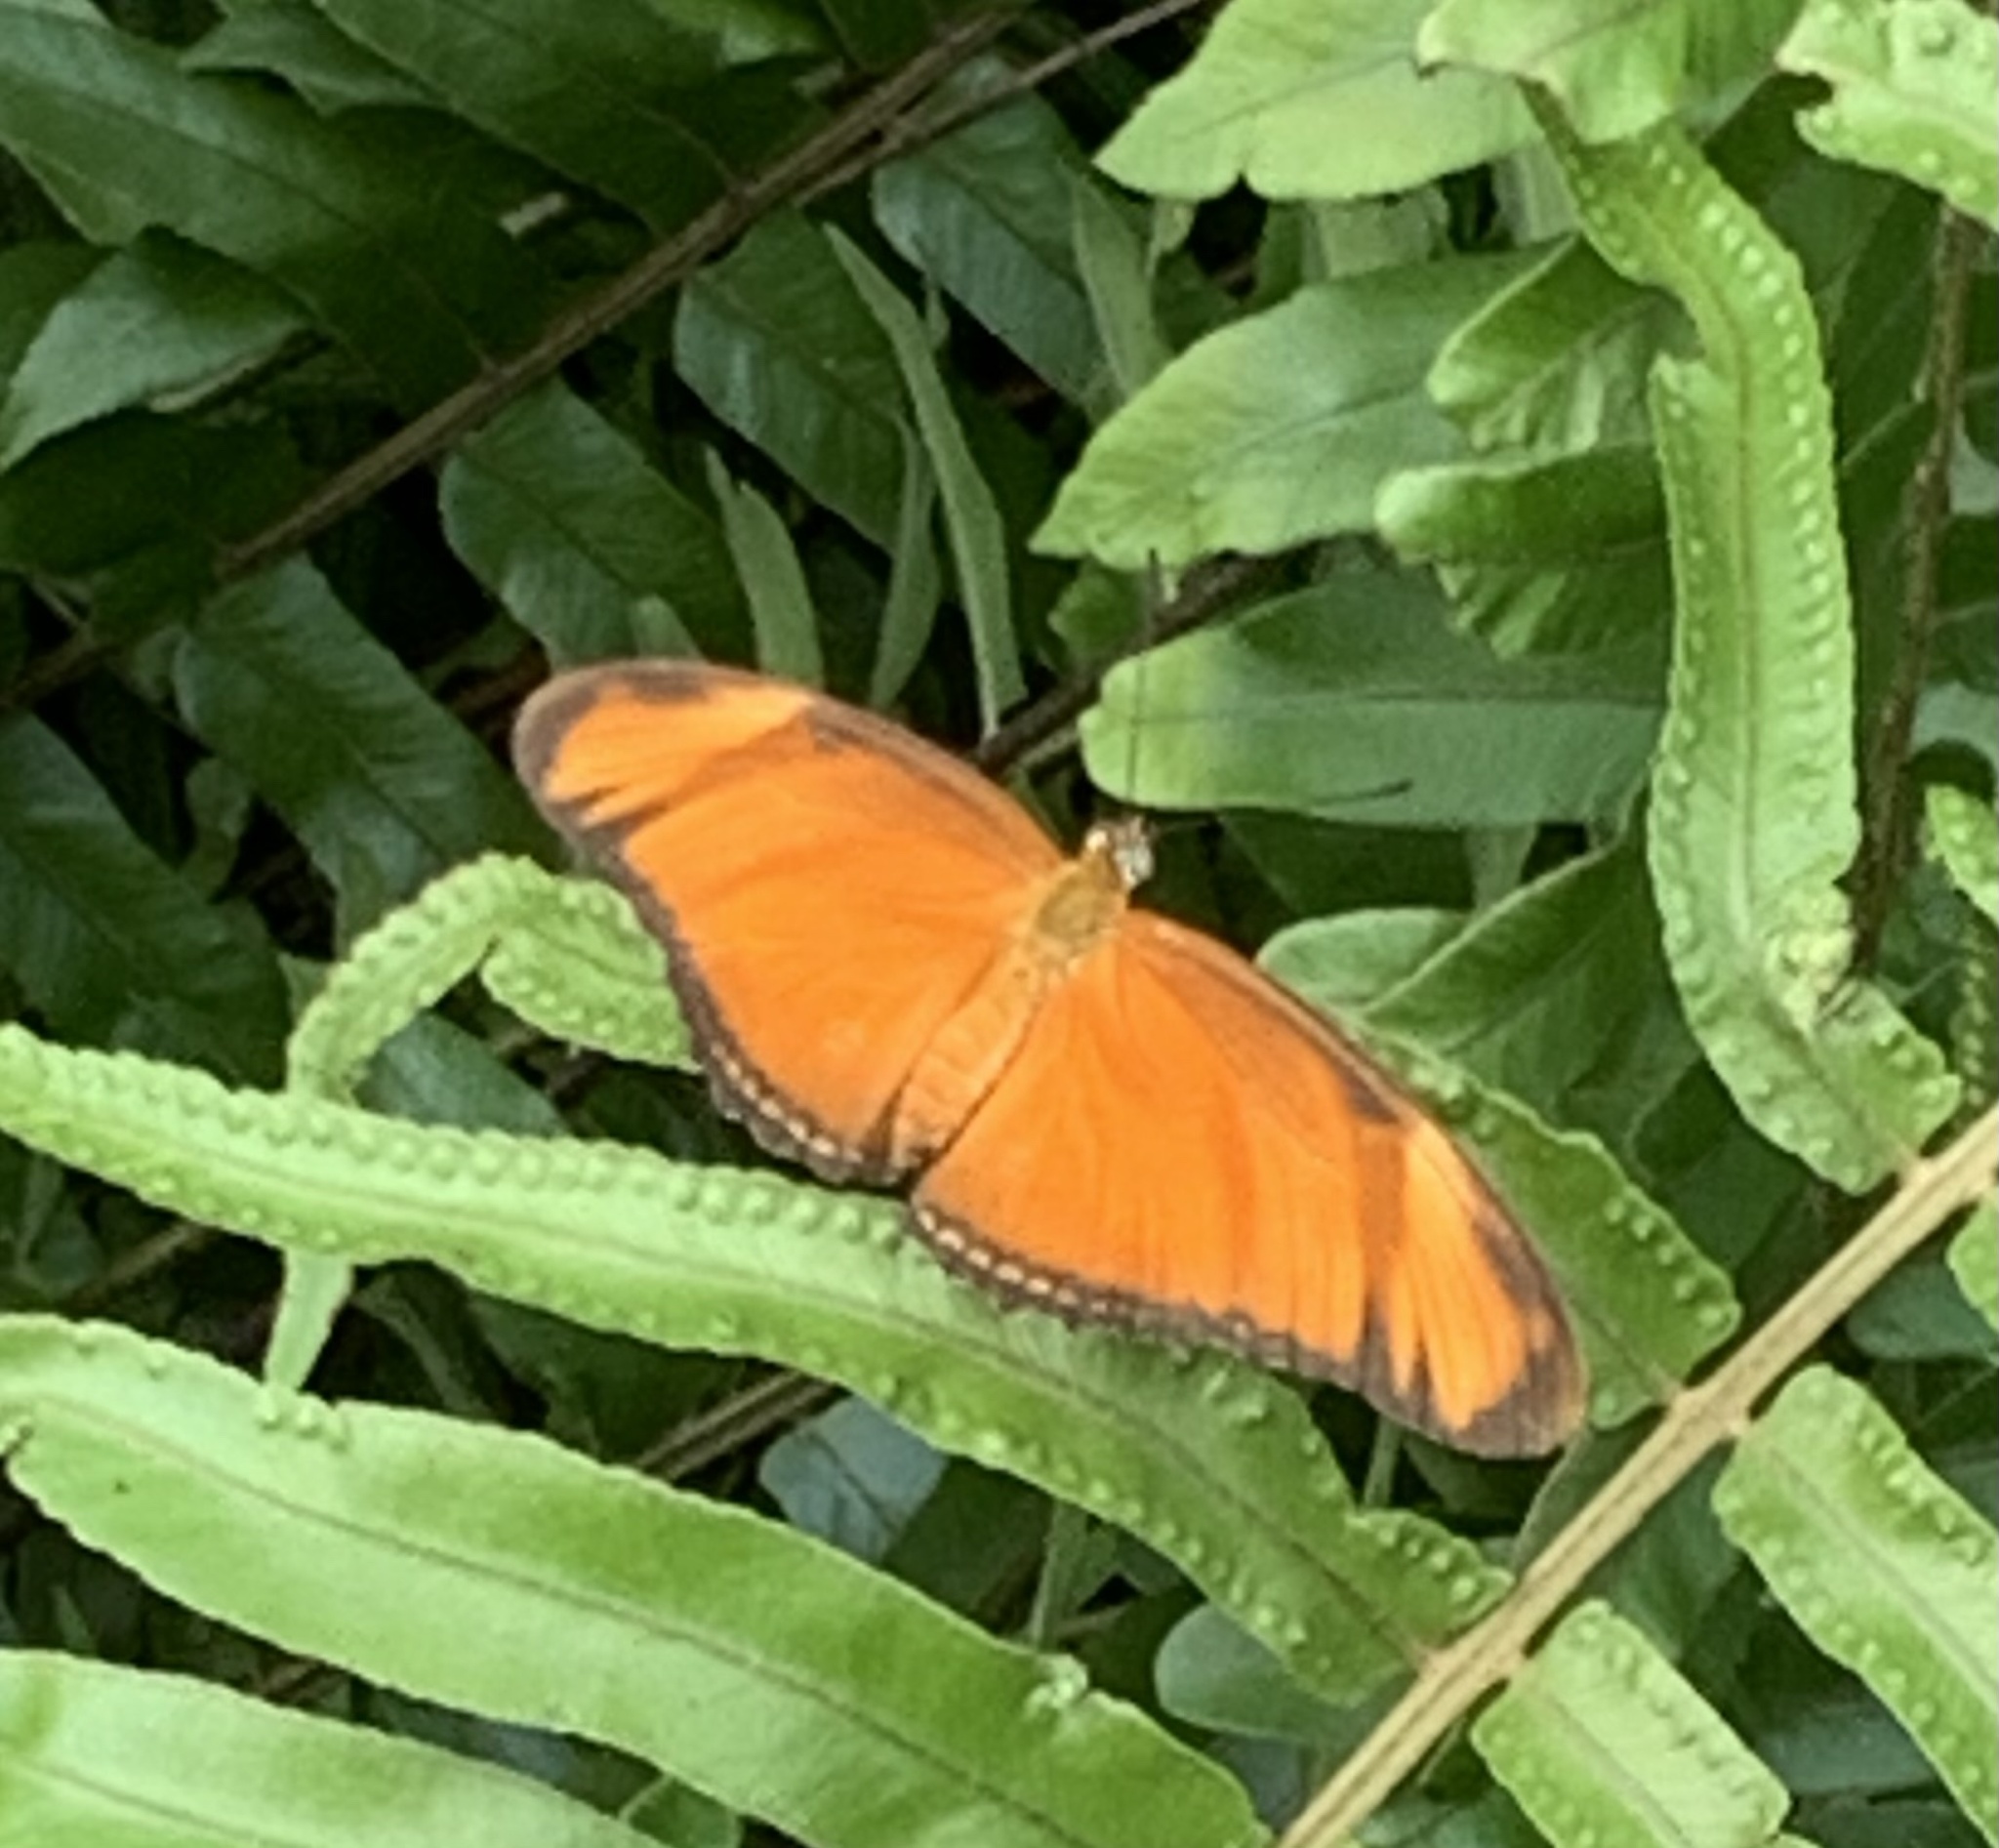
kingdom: Animalia
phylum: Arthropoda
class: Insecta
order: Lepidoptera
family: Nymphalidae
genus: Dryas
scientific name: Dryas iulia
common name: Flambeau
